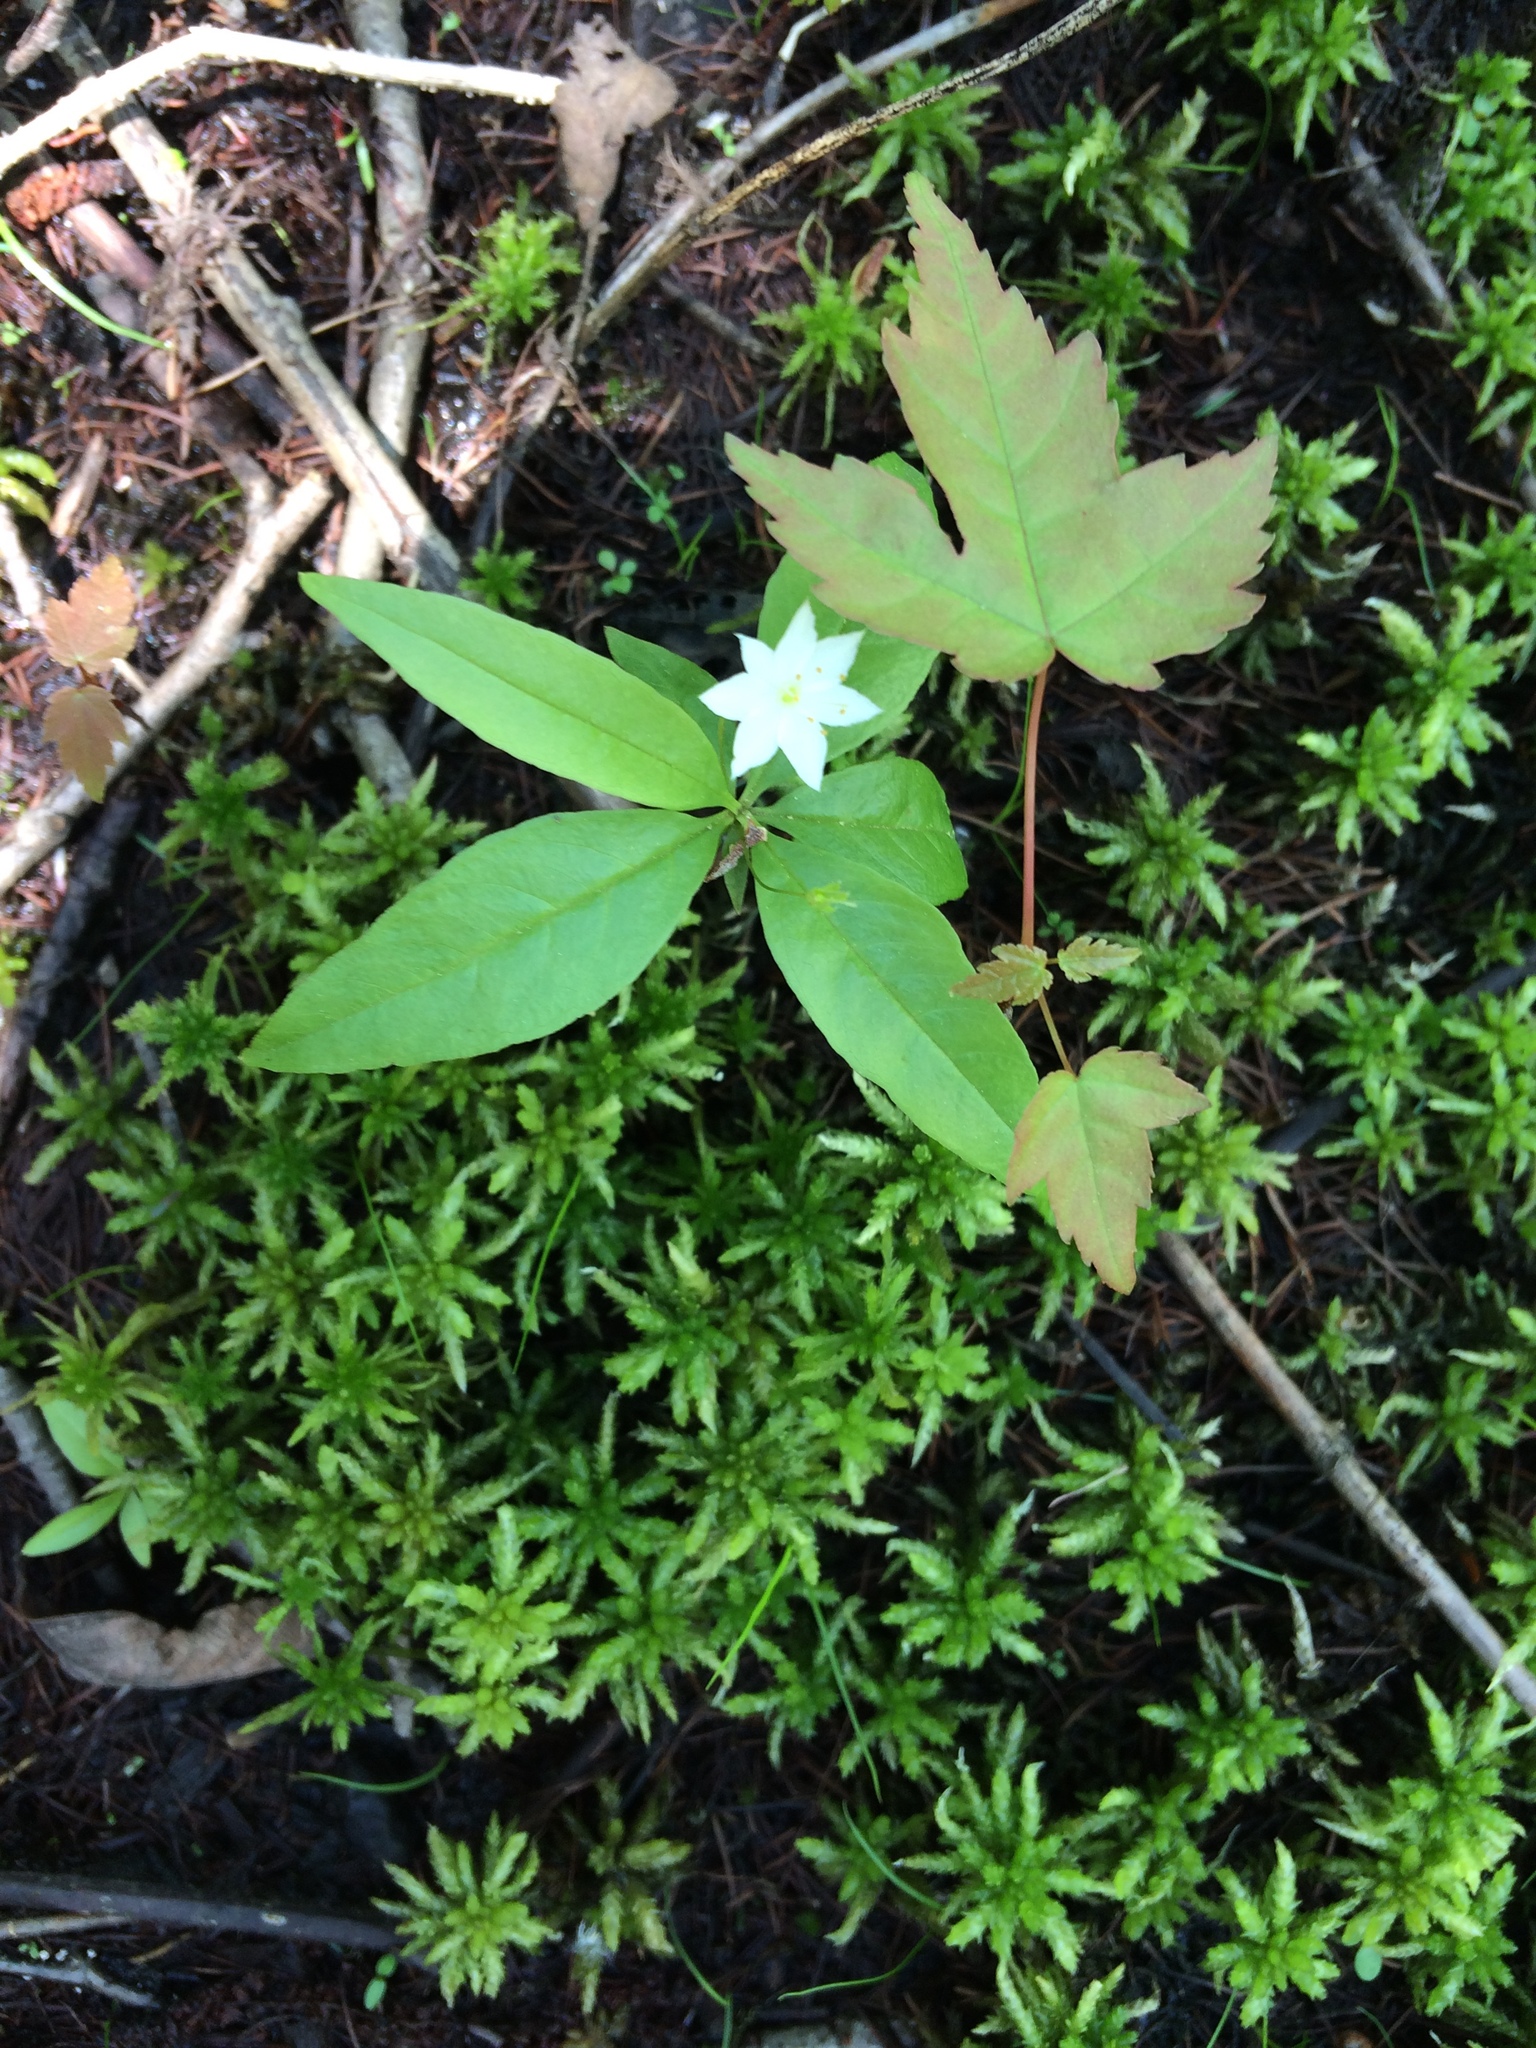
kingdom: Plantae
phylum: Tracheophyta
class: Magnoliopsida
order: Ericales
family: Primulaceae
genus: Lysimachia
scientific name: Lysimachia borealis
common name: American starflower
